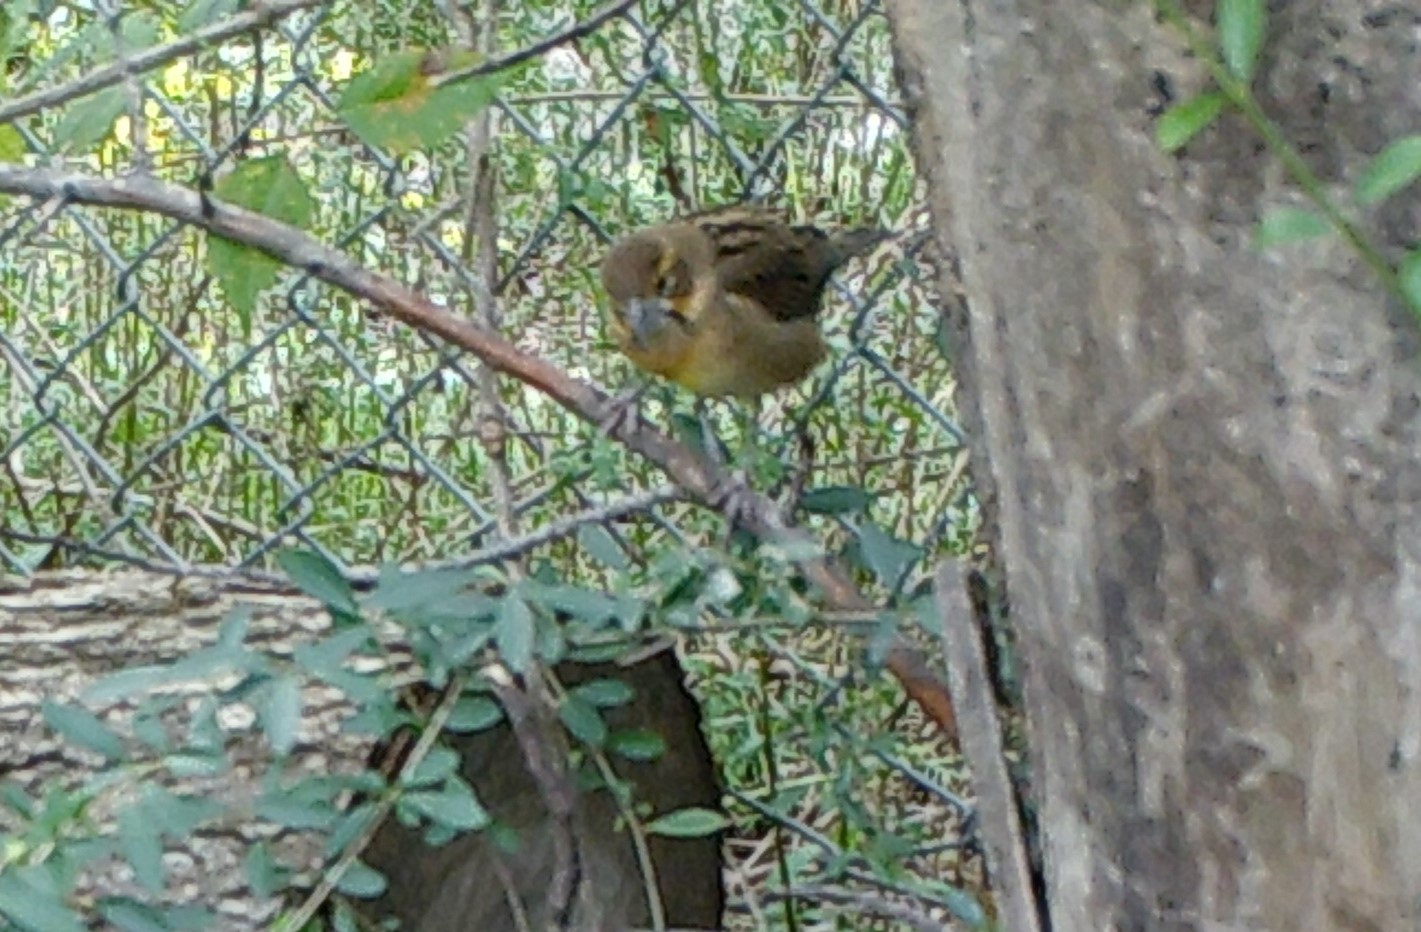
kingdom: Animalia
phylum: Chordata
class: Aves
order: Passeriformes
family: Cardinalidae
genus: Spiza
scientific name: Spiza americana
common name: Dickcissel
